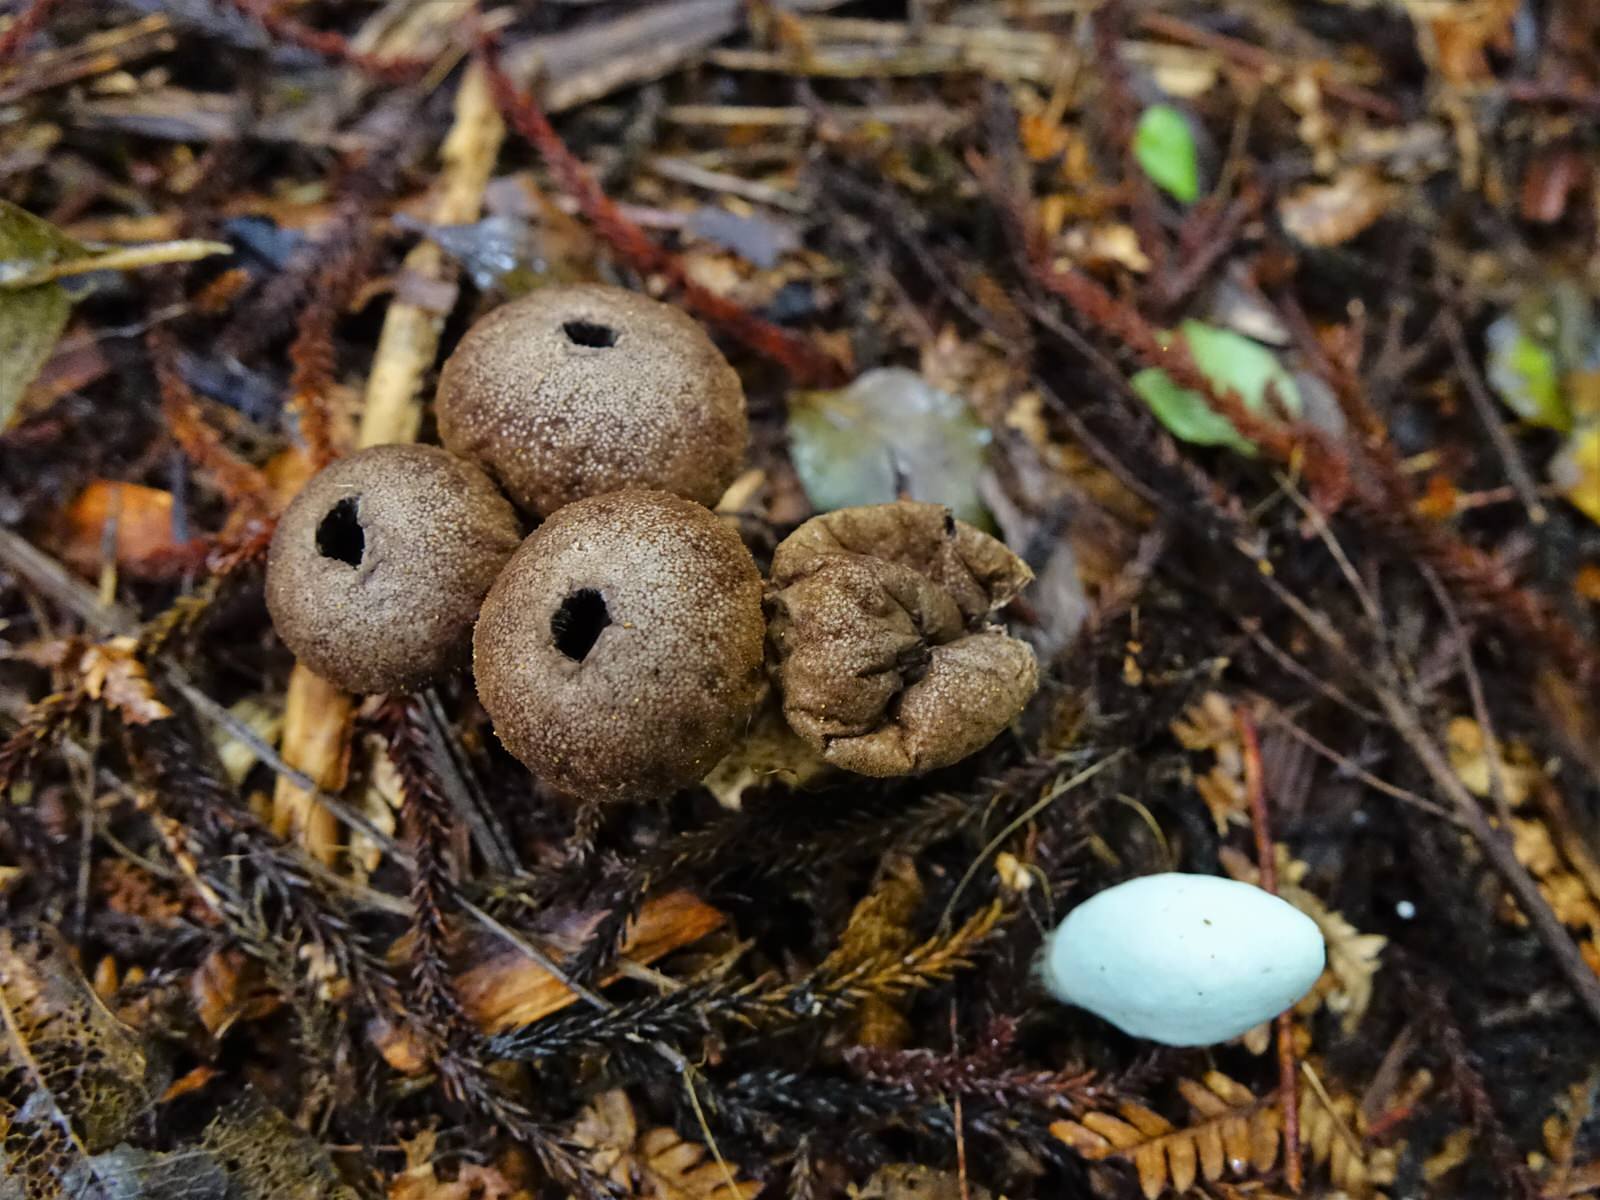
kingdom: Fungi
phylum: Basidiomycota
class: Agaricomycetes
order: Agaricales
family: Agaricaceae
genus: Clavogaster
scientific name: Clavogaster virescens
